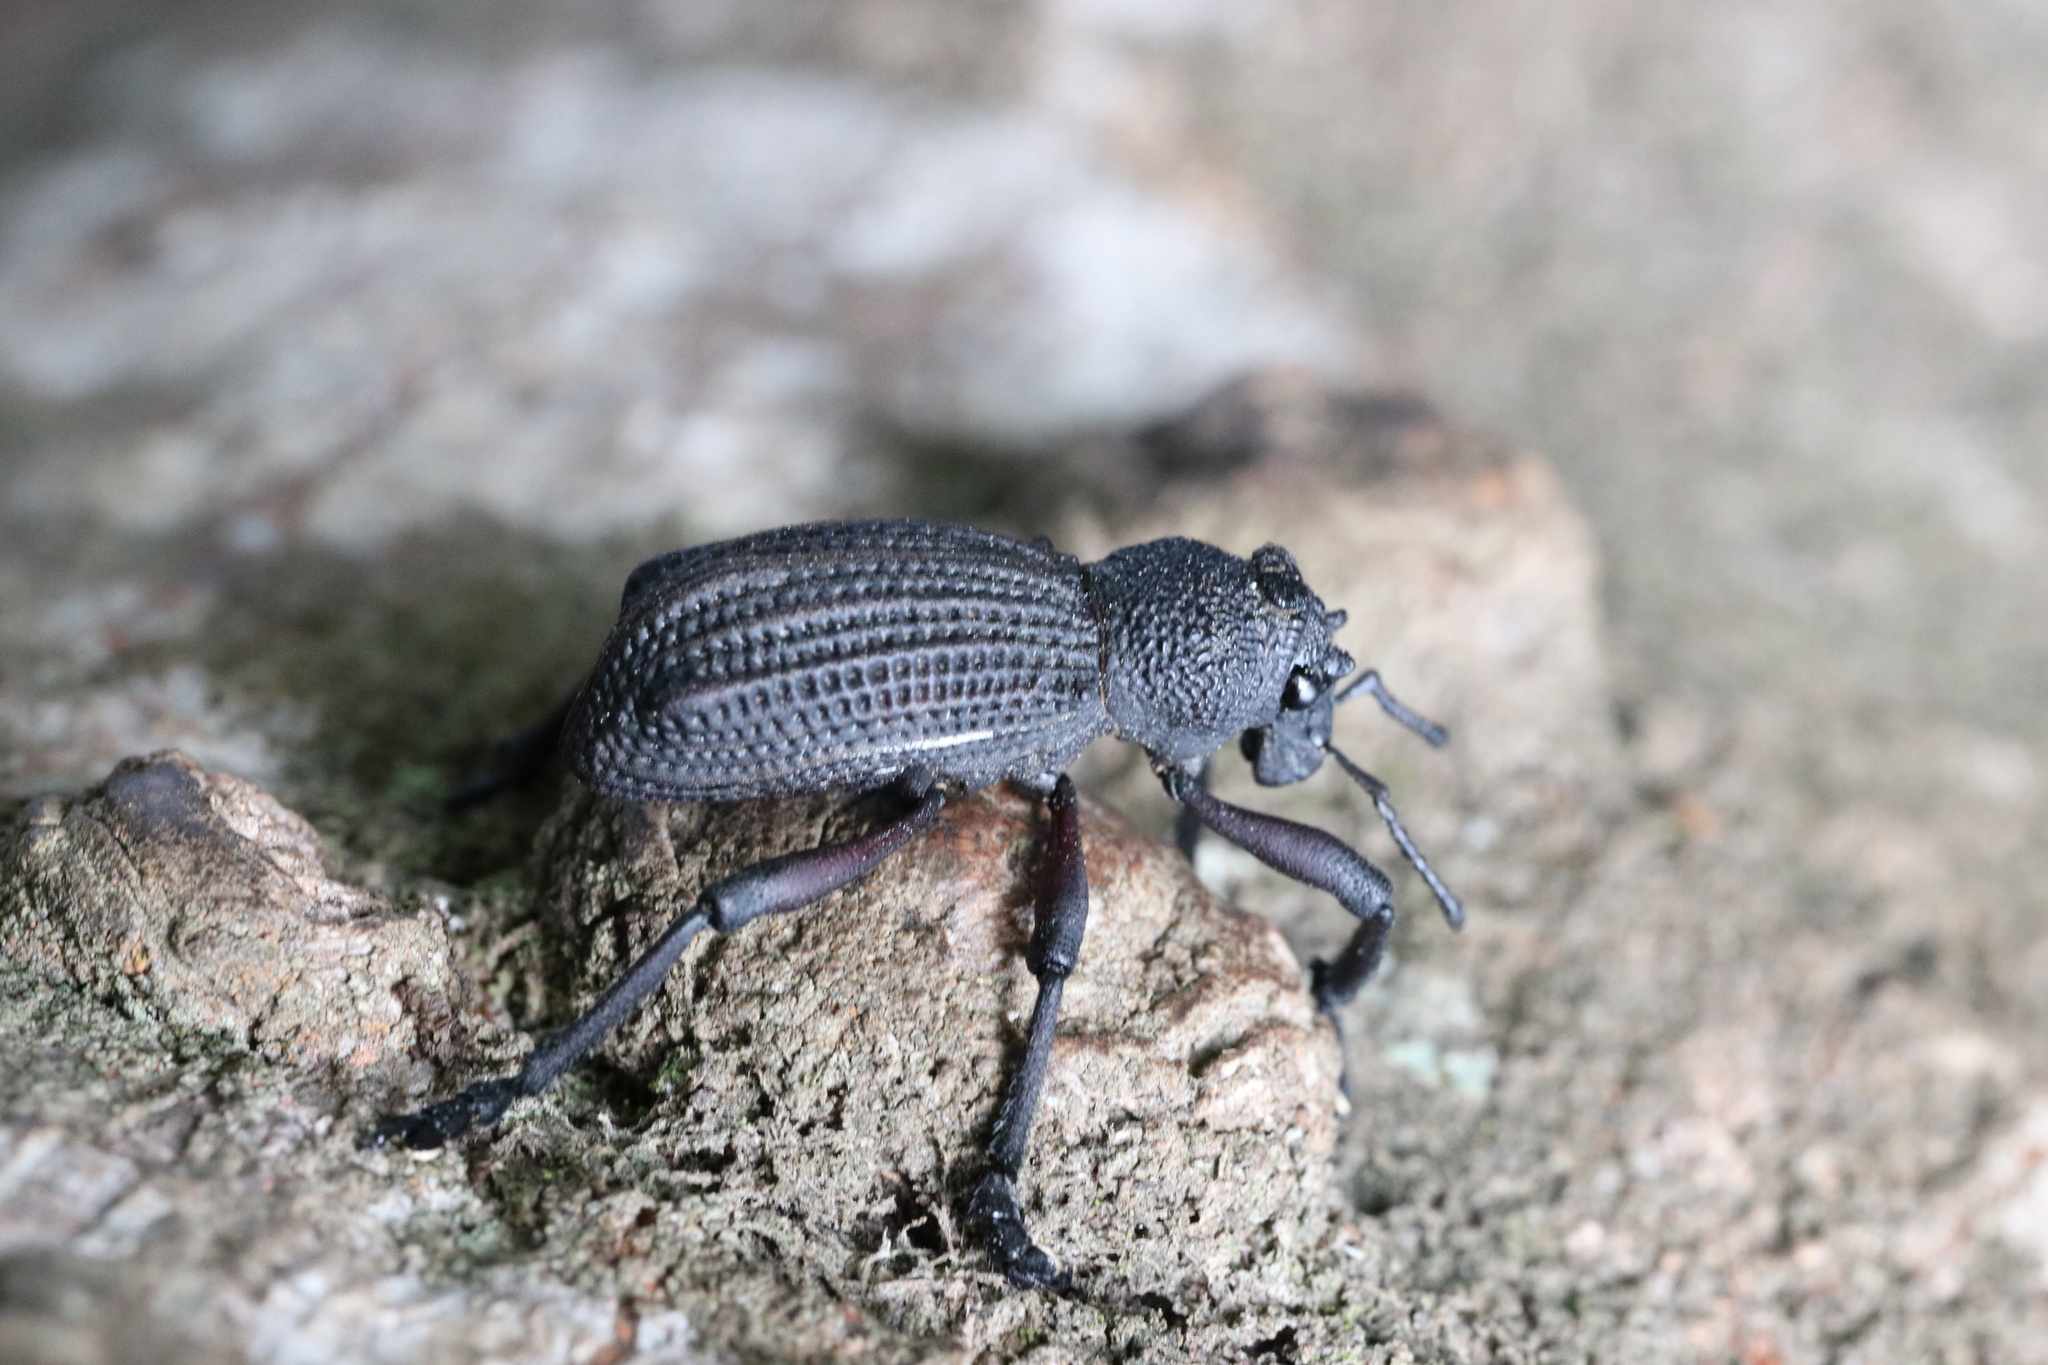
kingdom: Animalia
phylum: Arthropoda
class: Insecta
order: Coleoptera
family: Curculionidae
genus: Aegorhinus
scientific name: Aegorhinus
